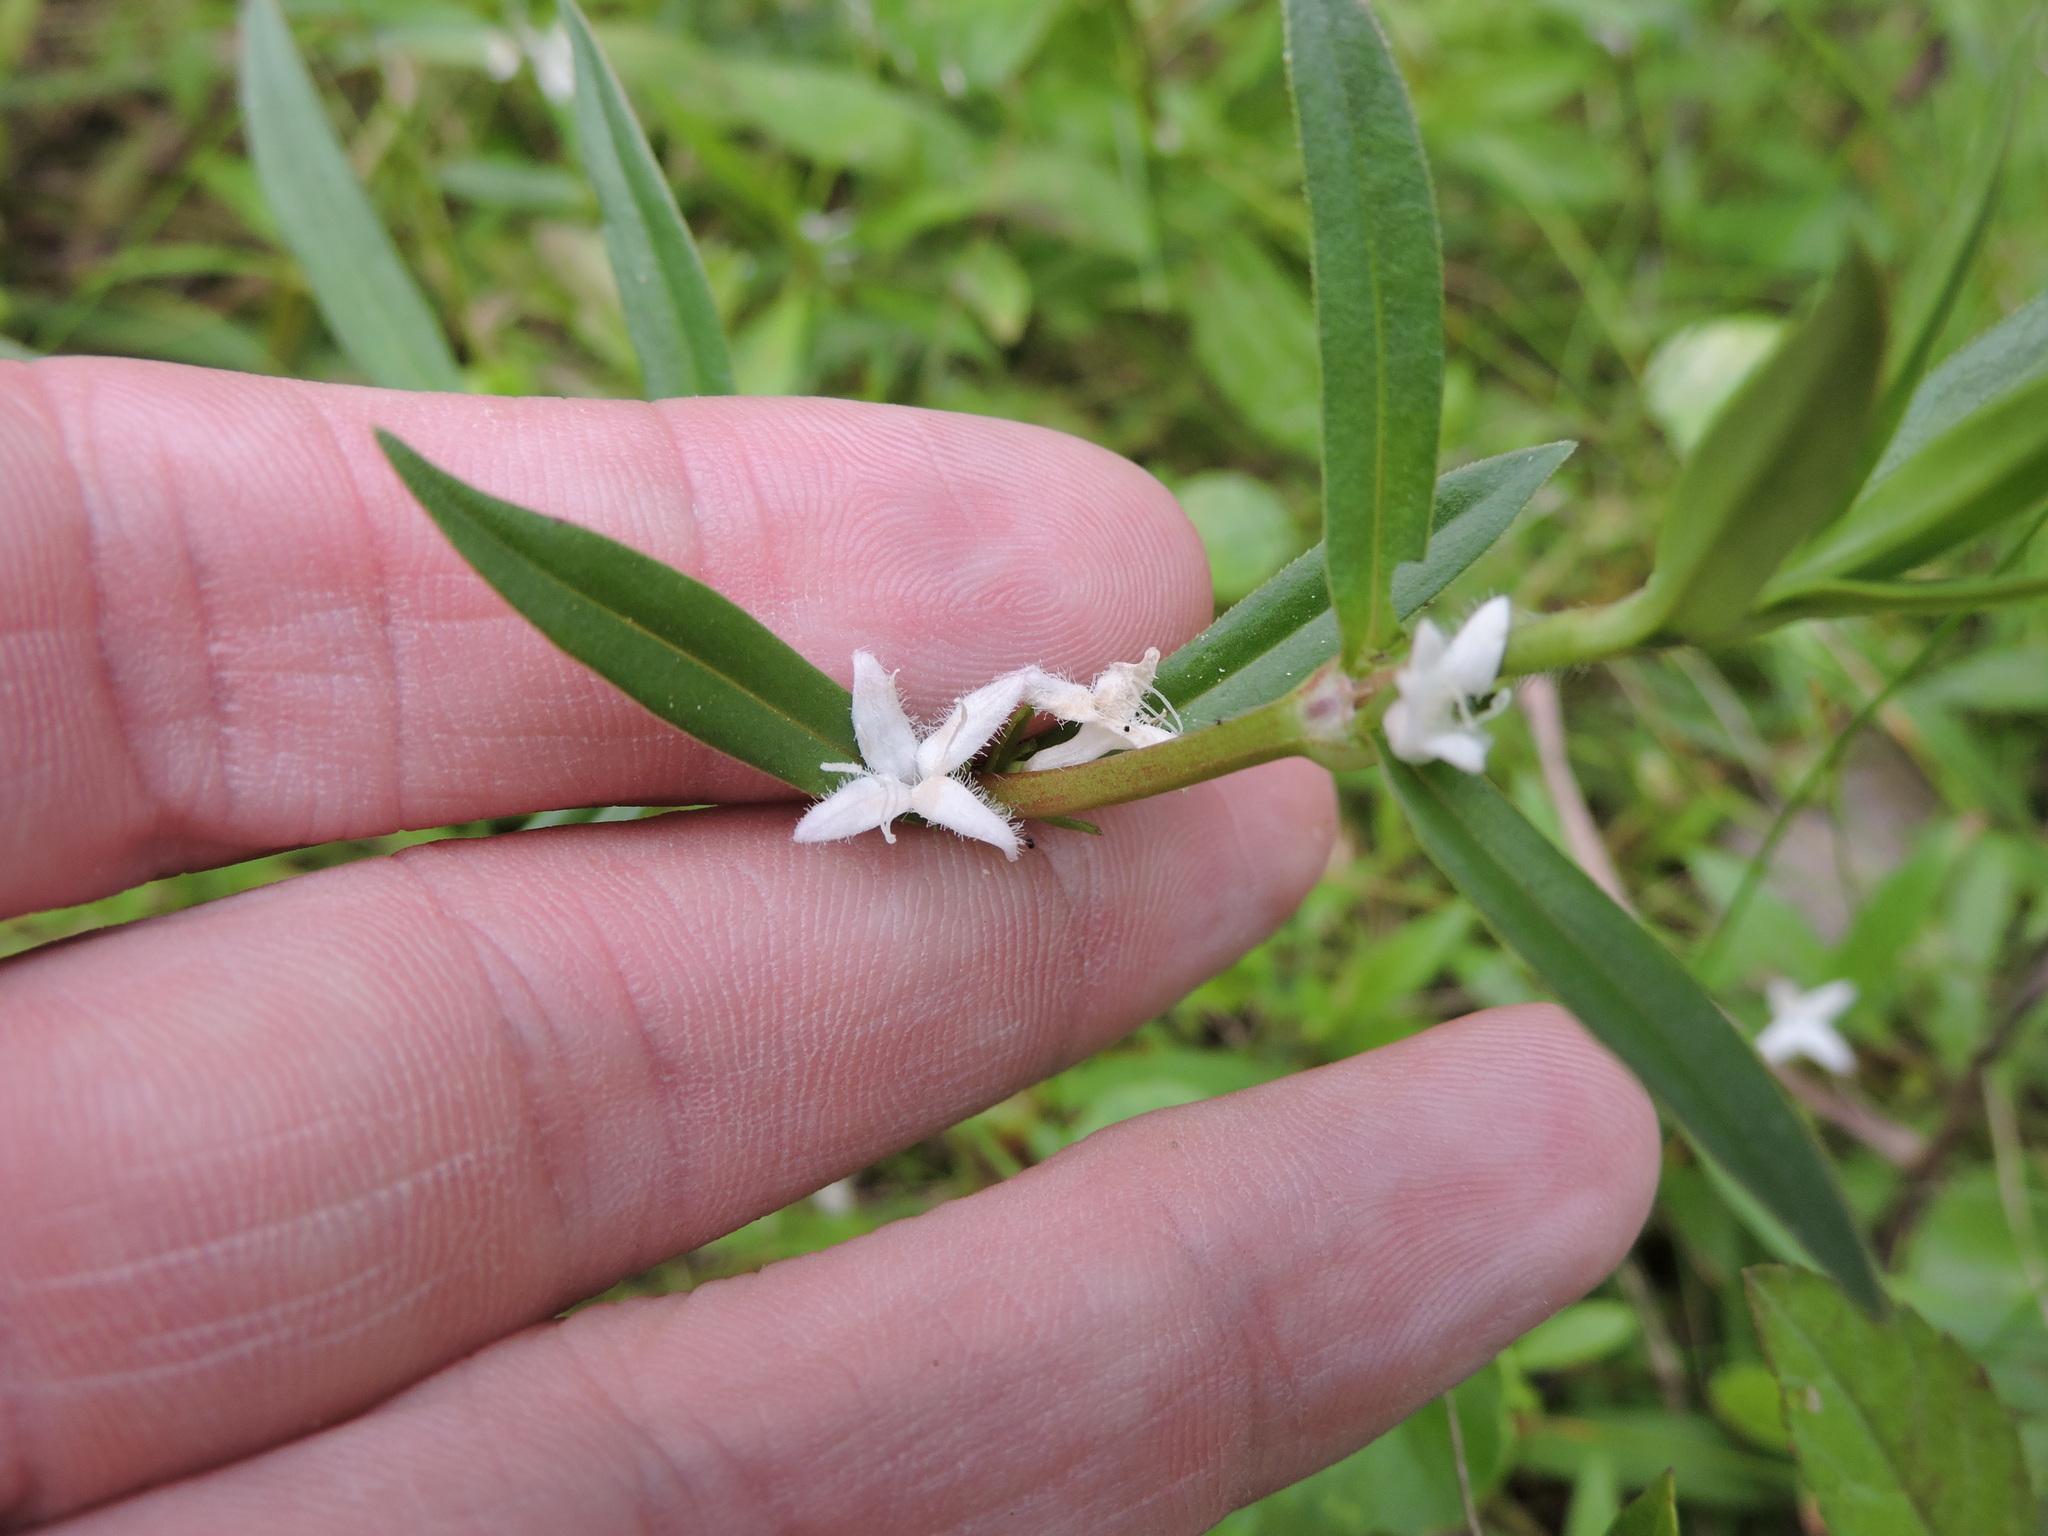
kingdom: Plantae
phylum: Tracheophyta
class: Magnoliopsida
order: Gentianales
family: Rubiaceae
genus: Diodia
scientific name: Diodia virginiana
